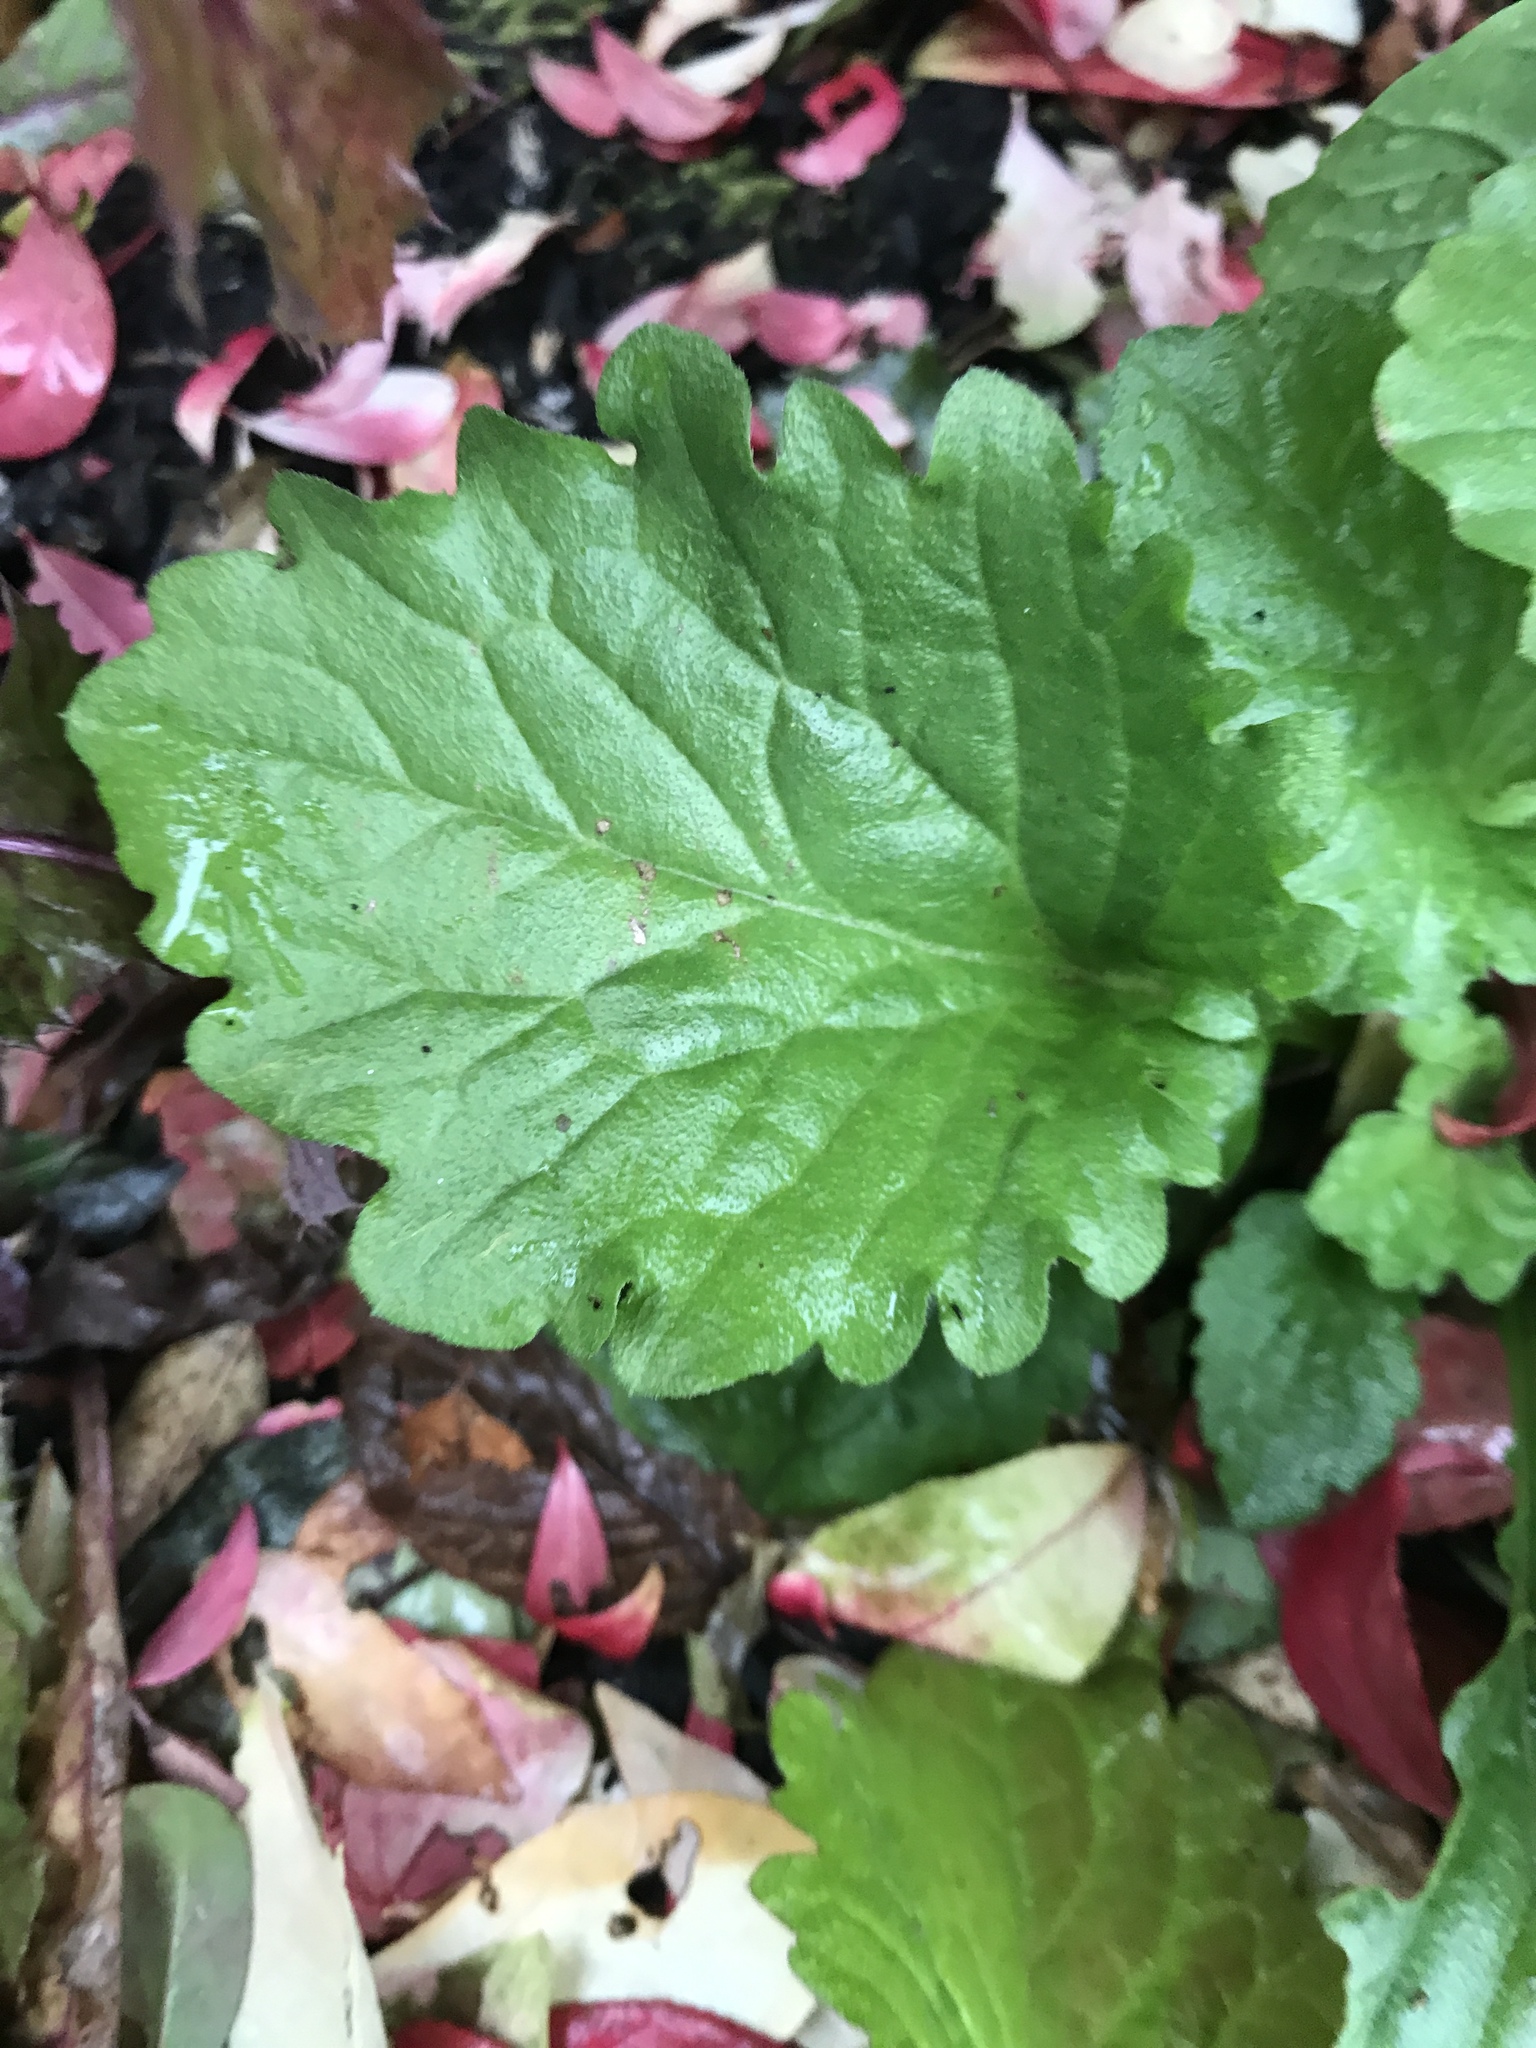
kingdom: Plantae
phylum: Tracheophyta
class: Magnoliopsida
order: Asterales
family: Asteraceae
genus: Erigeron
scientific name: Erigeron annuus
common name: Tall fleabane
